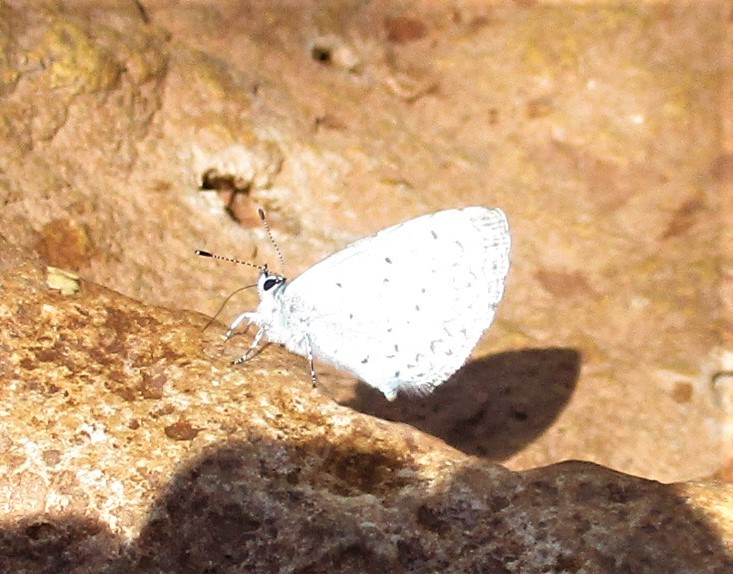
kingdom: Animalia
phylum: Arthropoda
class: Insecta
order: Lepidoptera
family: Lycaenidae
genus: Celastrina
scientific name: Celastrina ladon
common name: Spring azure
